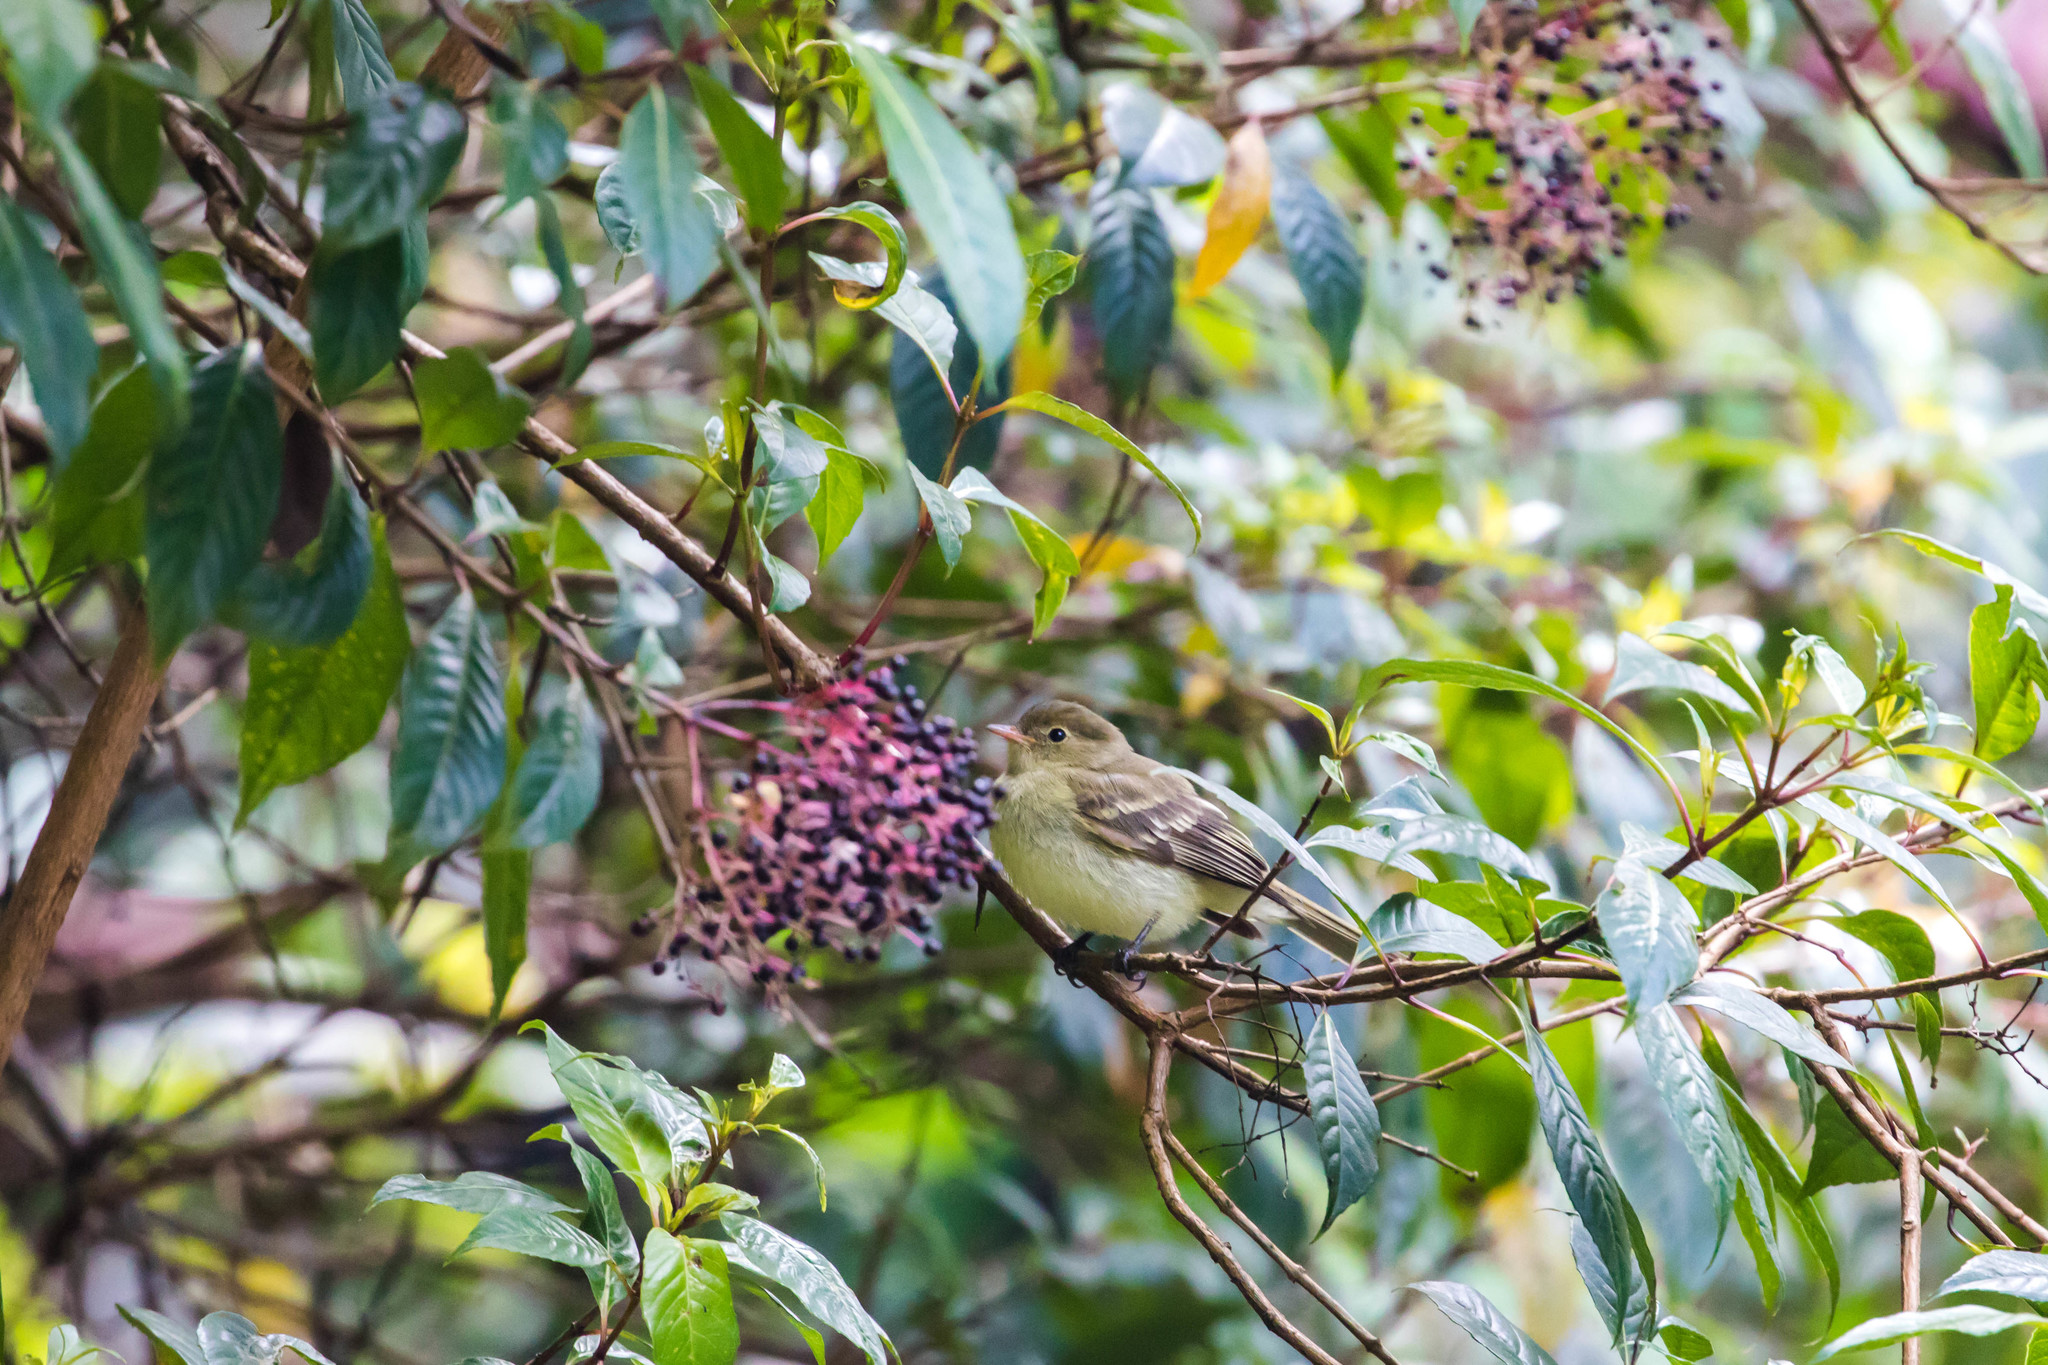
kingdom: Animalia
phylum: Chordata
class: Aves
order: Passeriformes
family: Tyrannidae
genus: Elaenia
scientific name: Elaenia frantzii
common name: Mountain elaenia
